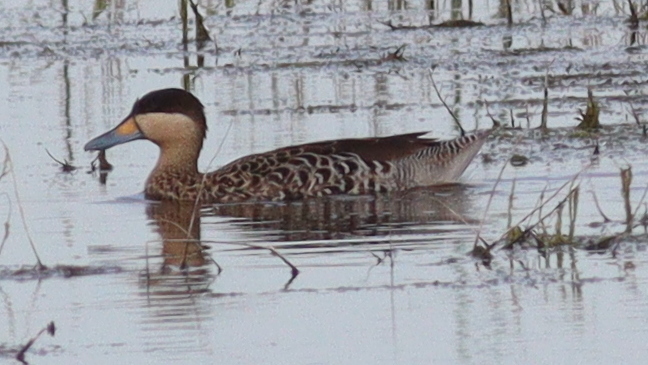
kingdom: Animalia
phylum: Chordata
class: Aves
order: Anseriformes
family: Anatidae
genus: Spatula
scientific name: Spatula versicolor
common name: Silver teal
